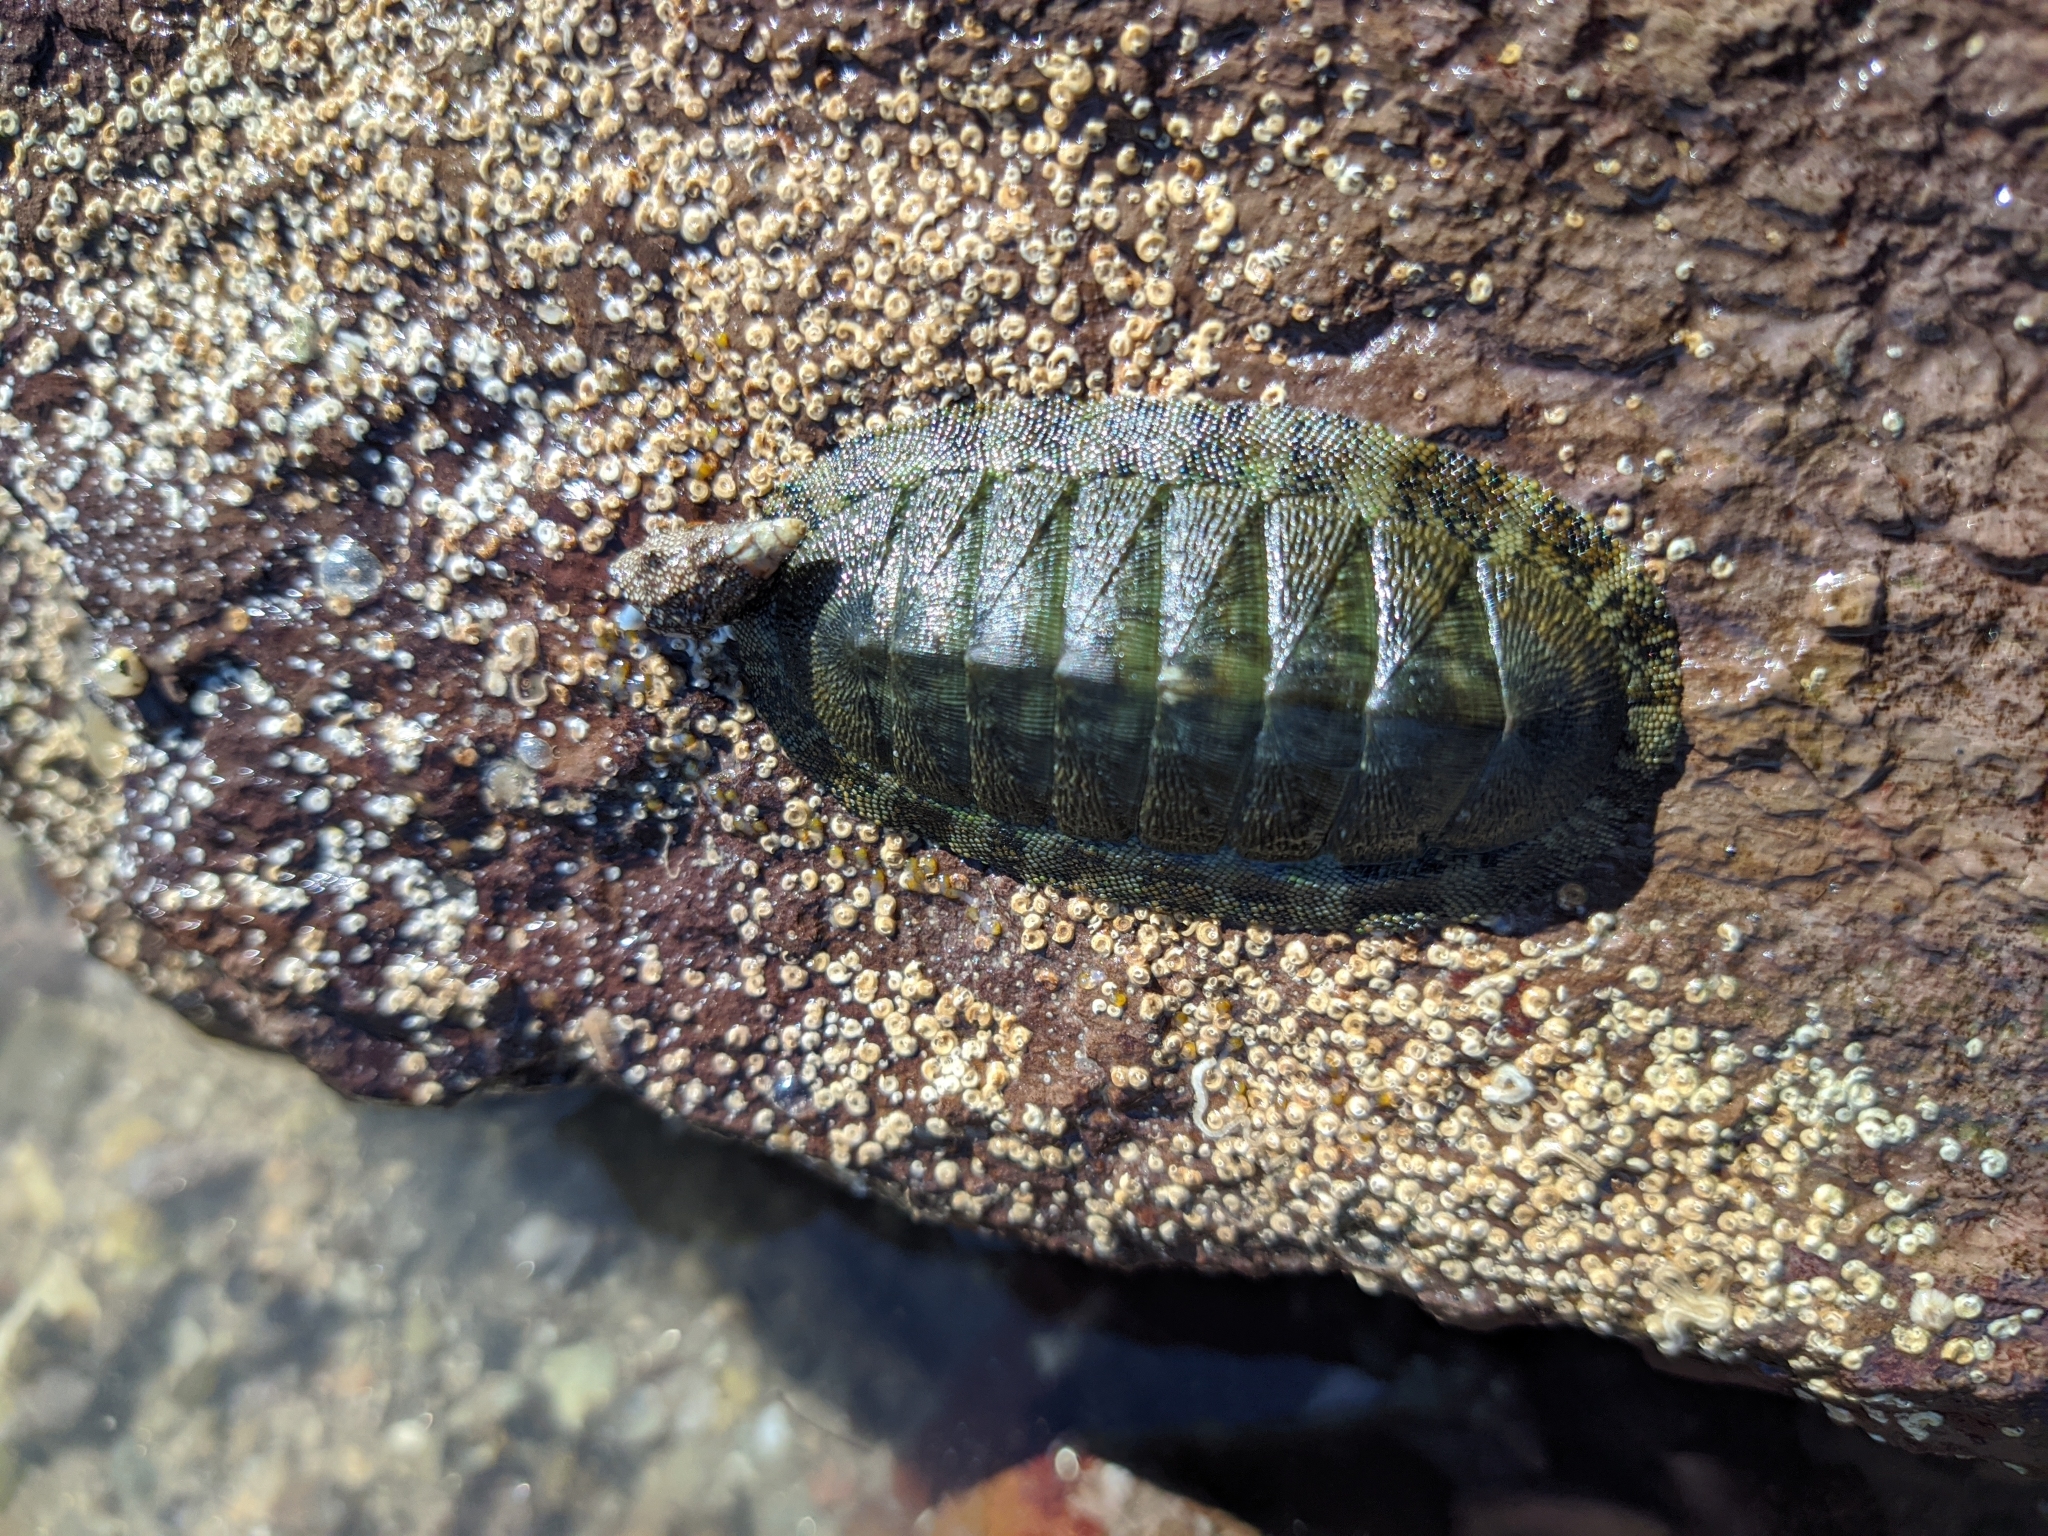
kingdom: Animalia
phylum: Mollusca
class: Polyplacophora
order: Chitonida
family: Chitonidae
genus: Chiton
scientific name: Chiton virgulatus
